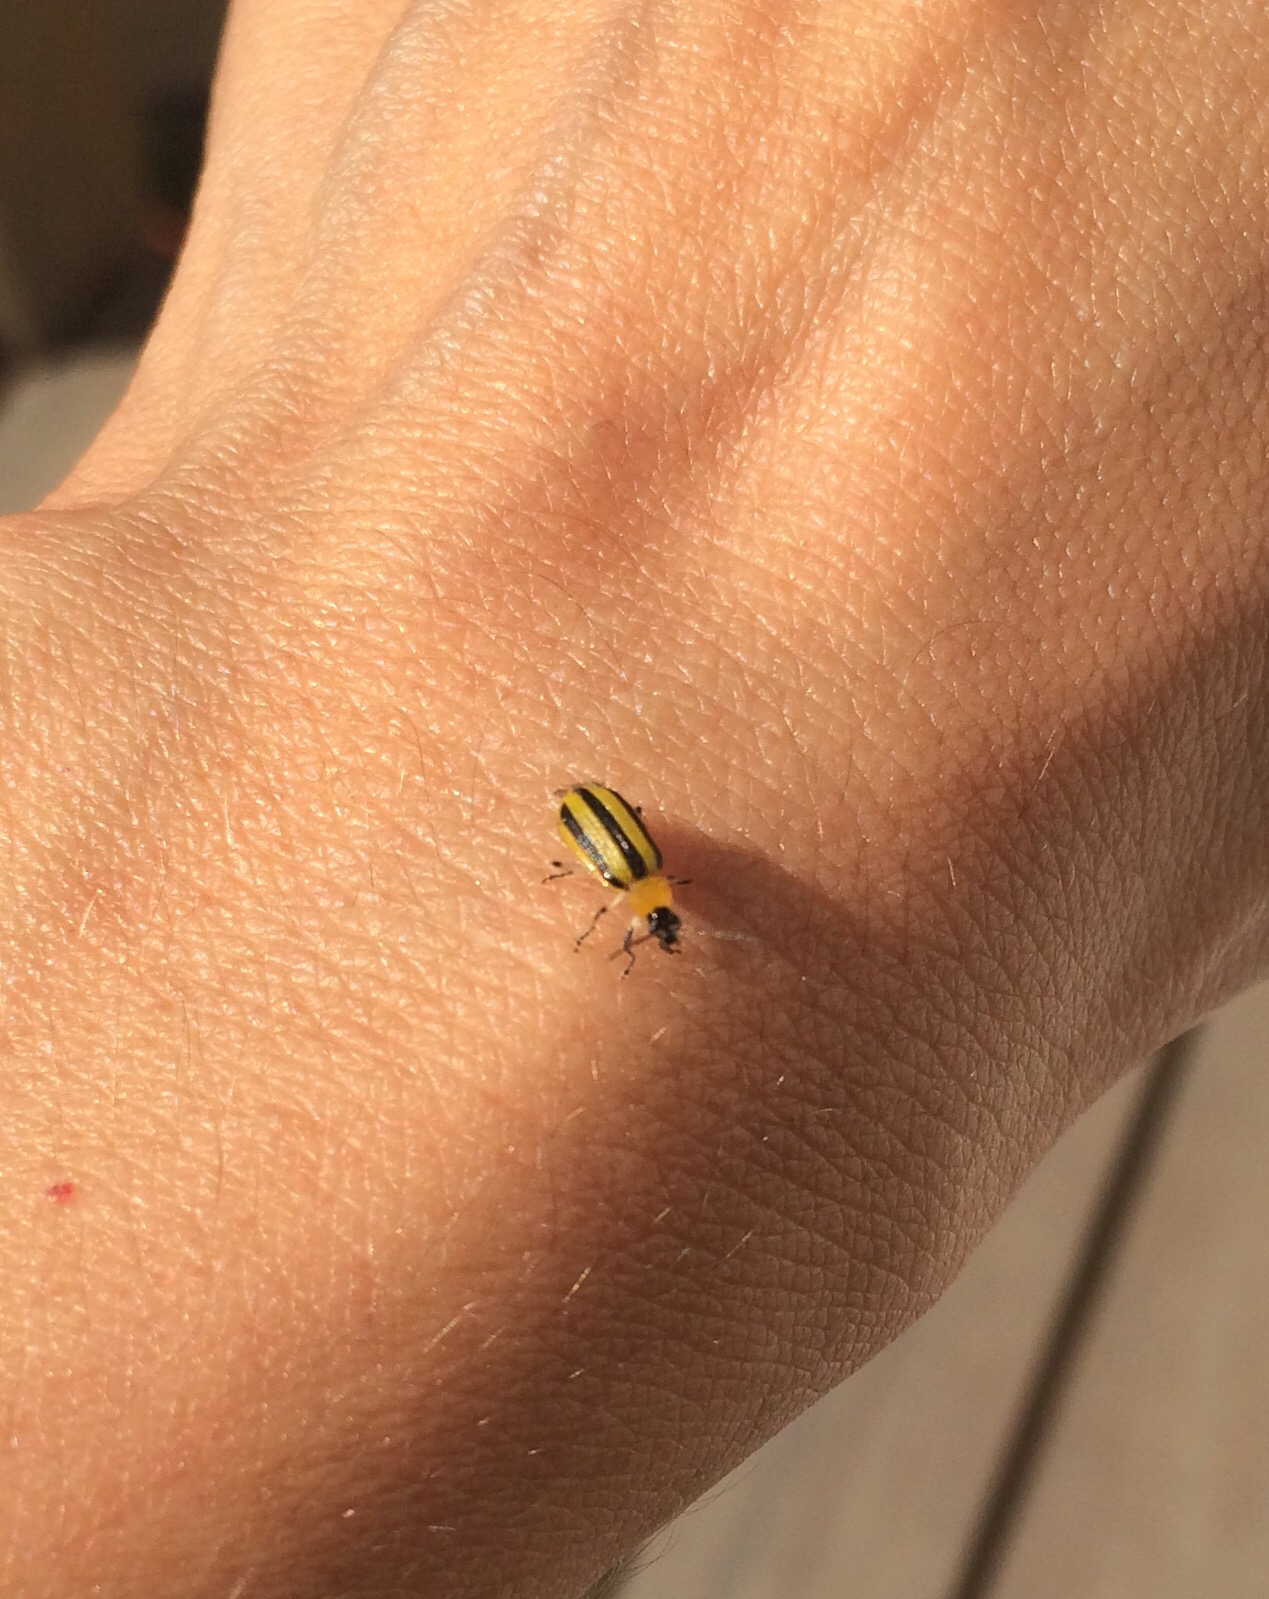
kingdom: Animalia
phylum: Arthropoda
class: Insecta
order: Coleoptera
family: Chrysomelidae
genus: Acalymma
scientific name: Acalymma vittatum
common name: Striped cucumber beetle
